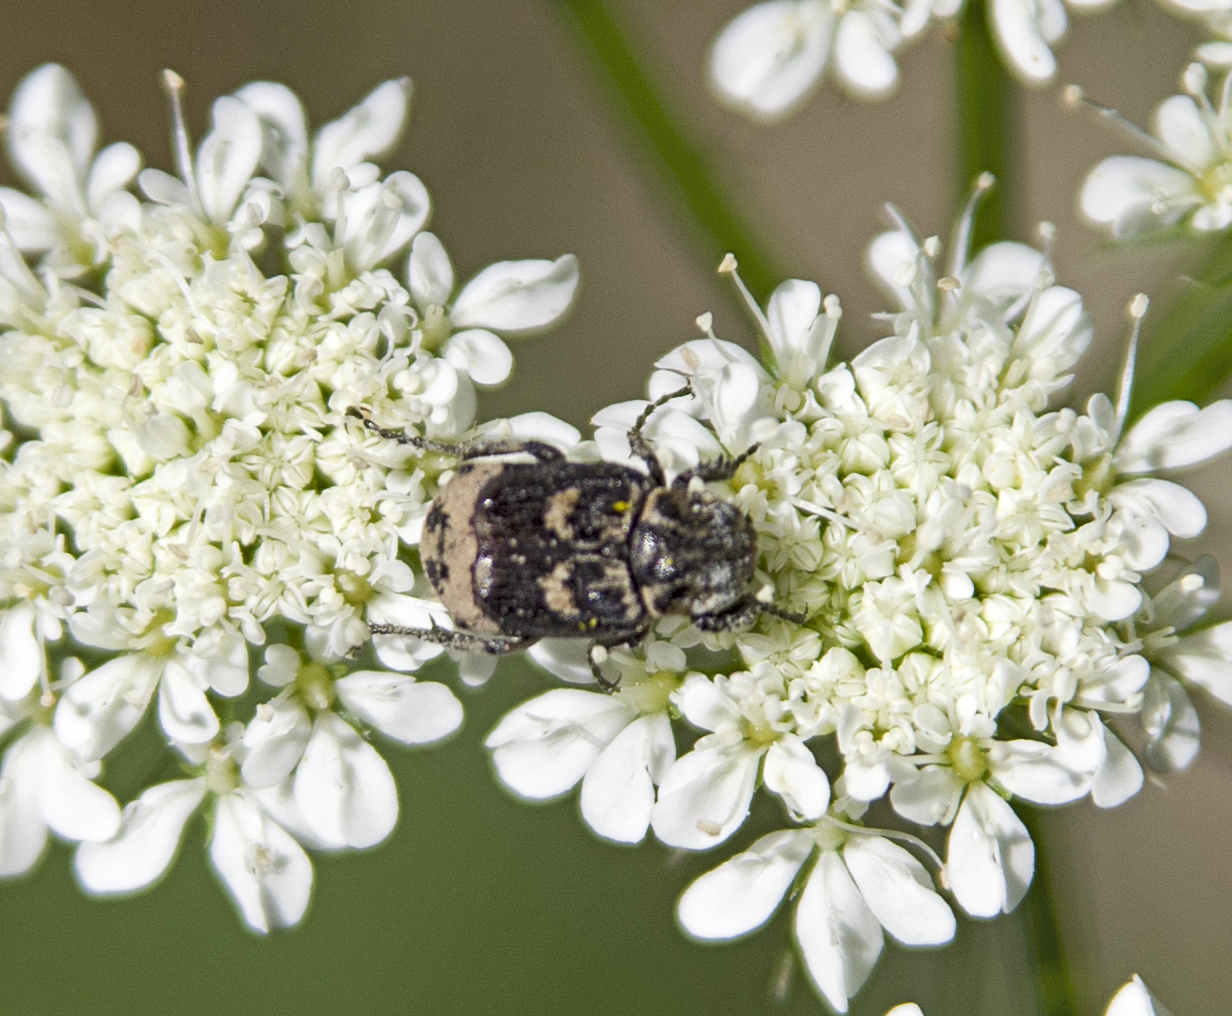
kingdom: Animalia
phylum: Arthropoda
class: Insecta
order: Coleoptera
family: Scarabaeidae
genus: Valgus
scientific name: Valgus hemipterus
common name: Bug flower chafer
